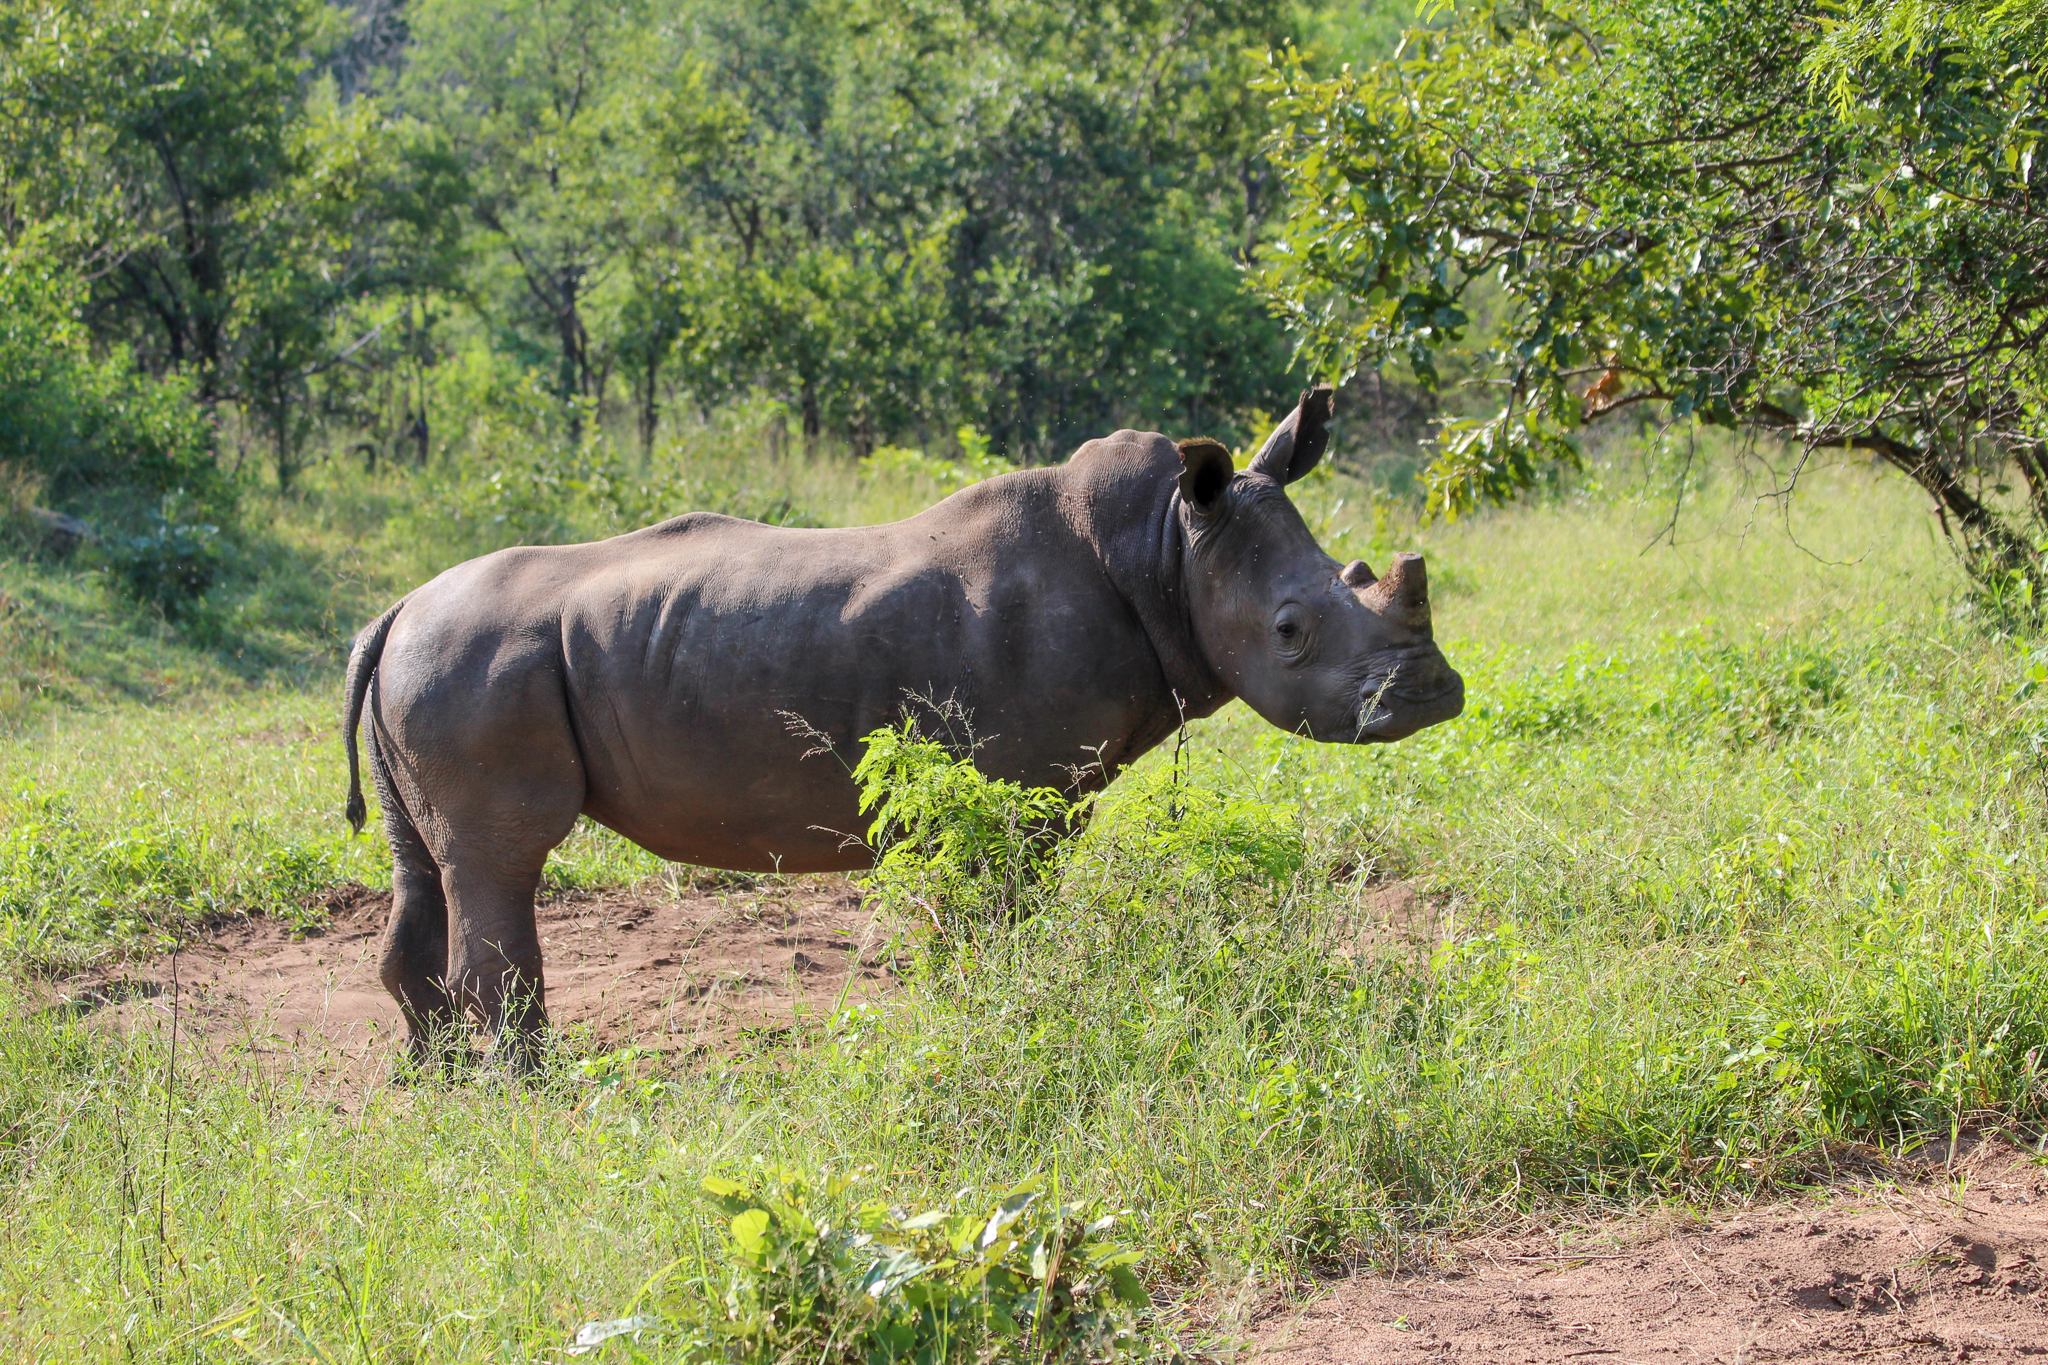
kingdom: Animalia
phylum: Chordata
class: Mammalia
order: Perissodactyla
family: Rhinocerotidae
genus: Ceratotherium
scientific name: Ceratotherium simum
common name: White rhinoceros
